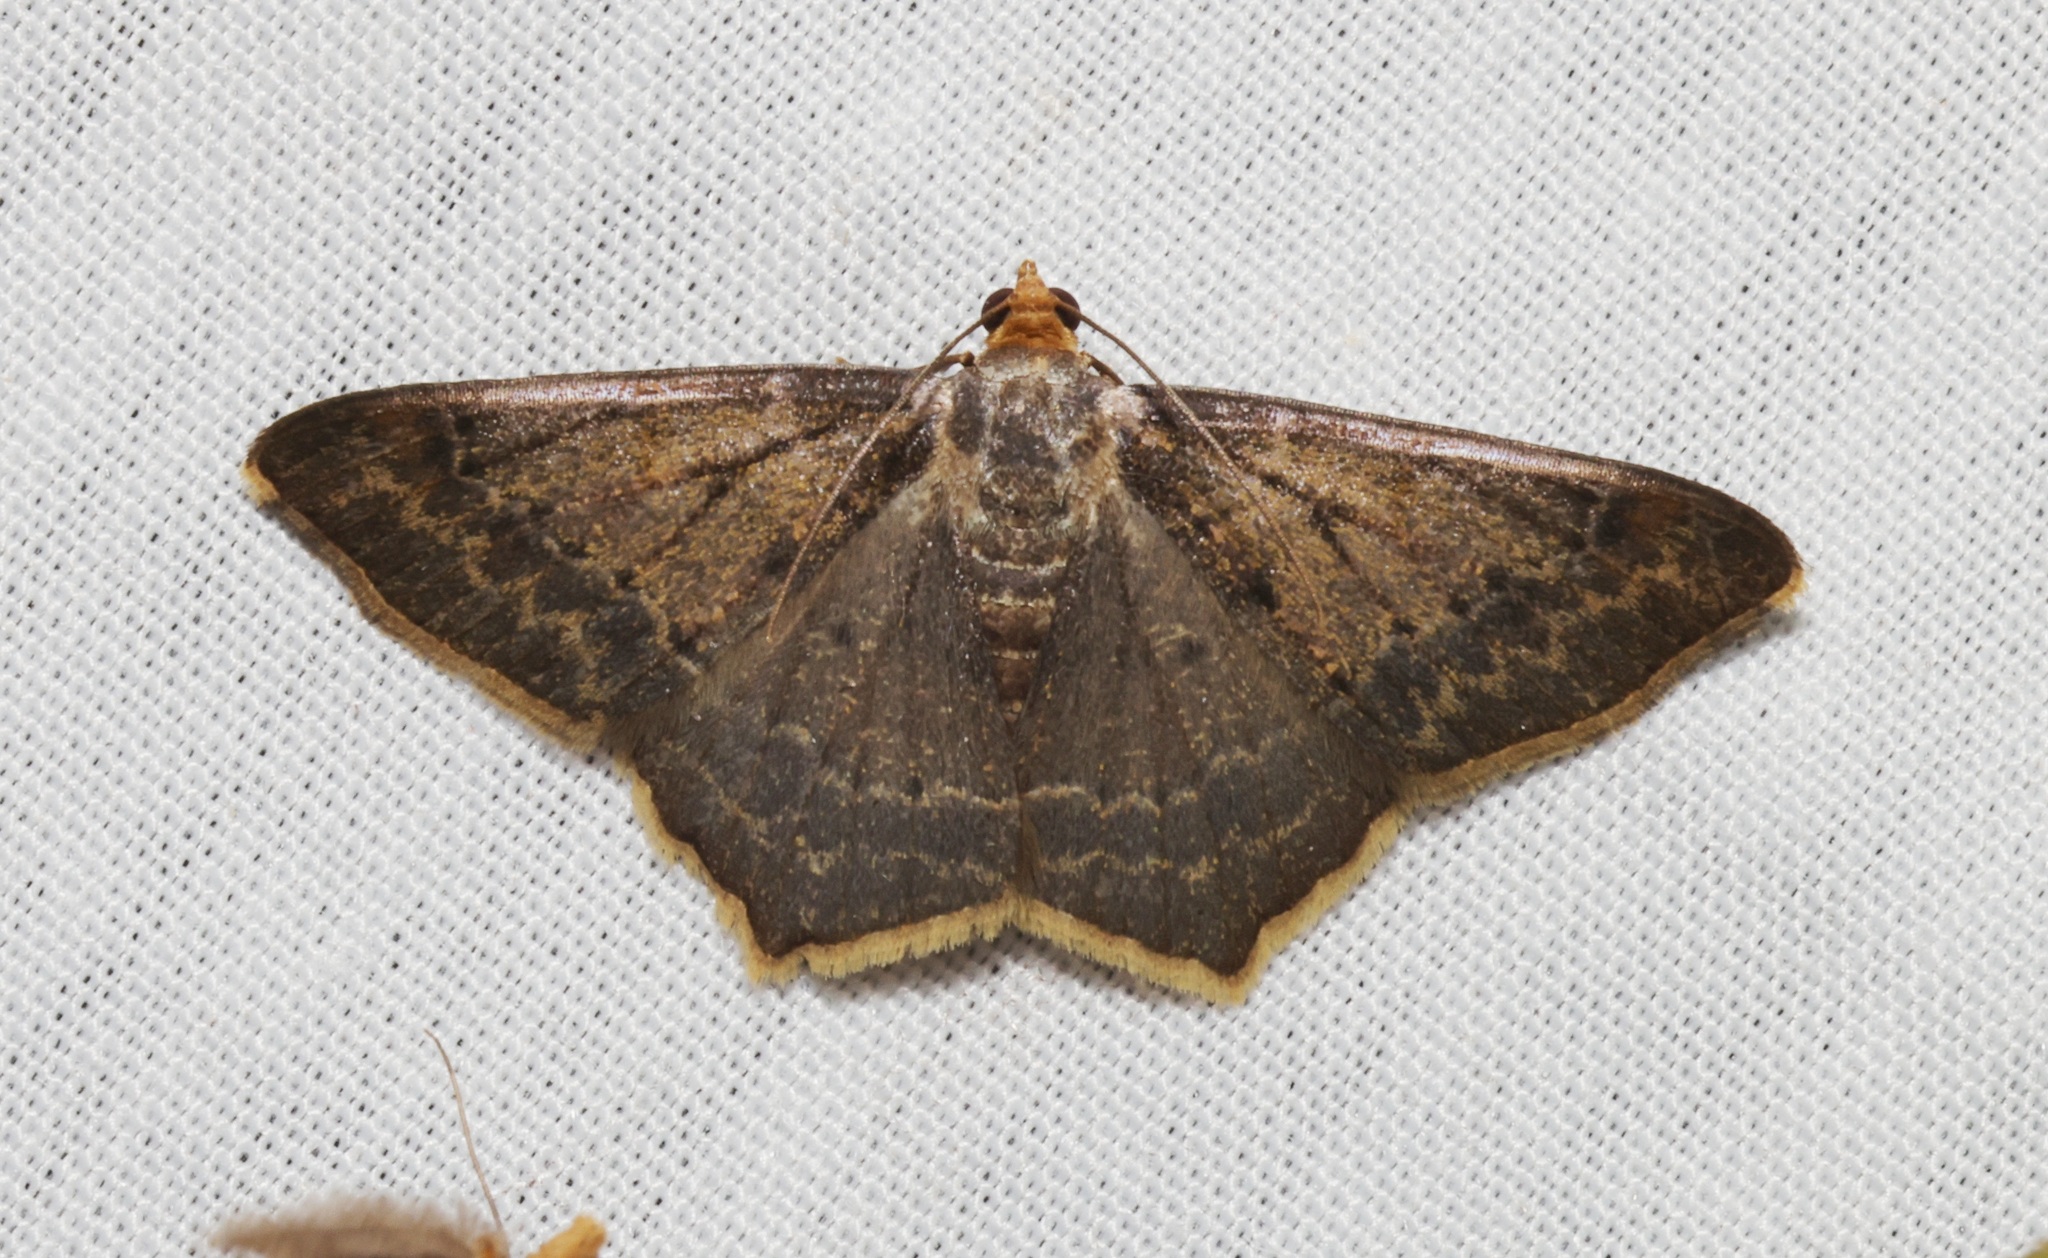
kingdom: Animalia
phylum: Arthropoda
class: Insecta
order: Lepidoptera
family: Geometridae
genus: Macaria
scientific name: Macaria abydata
